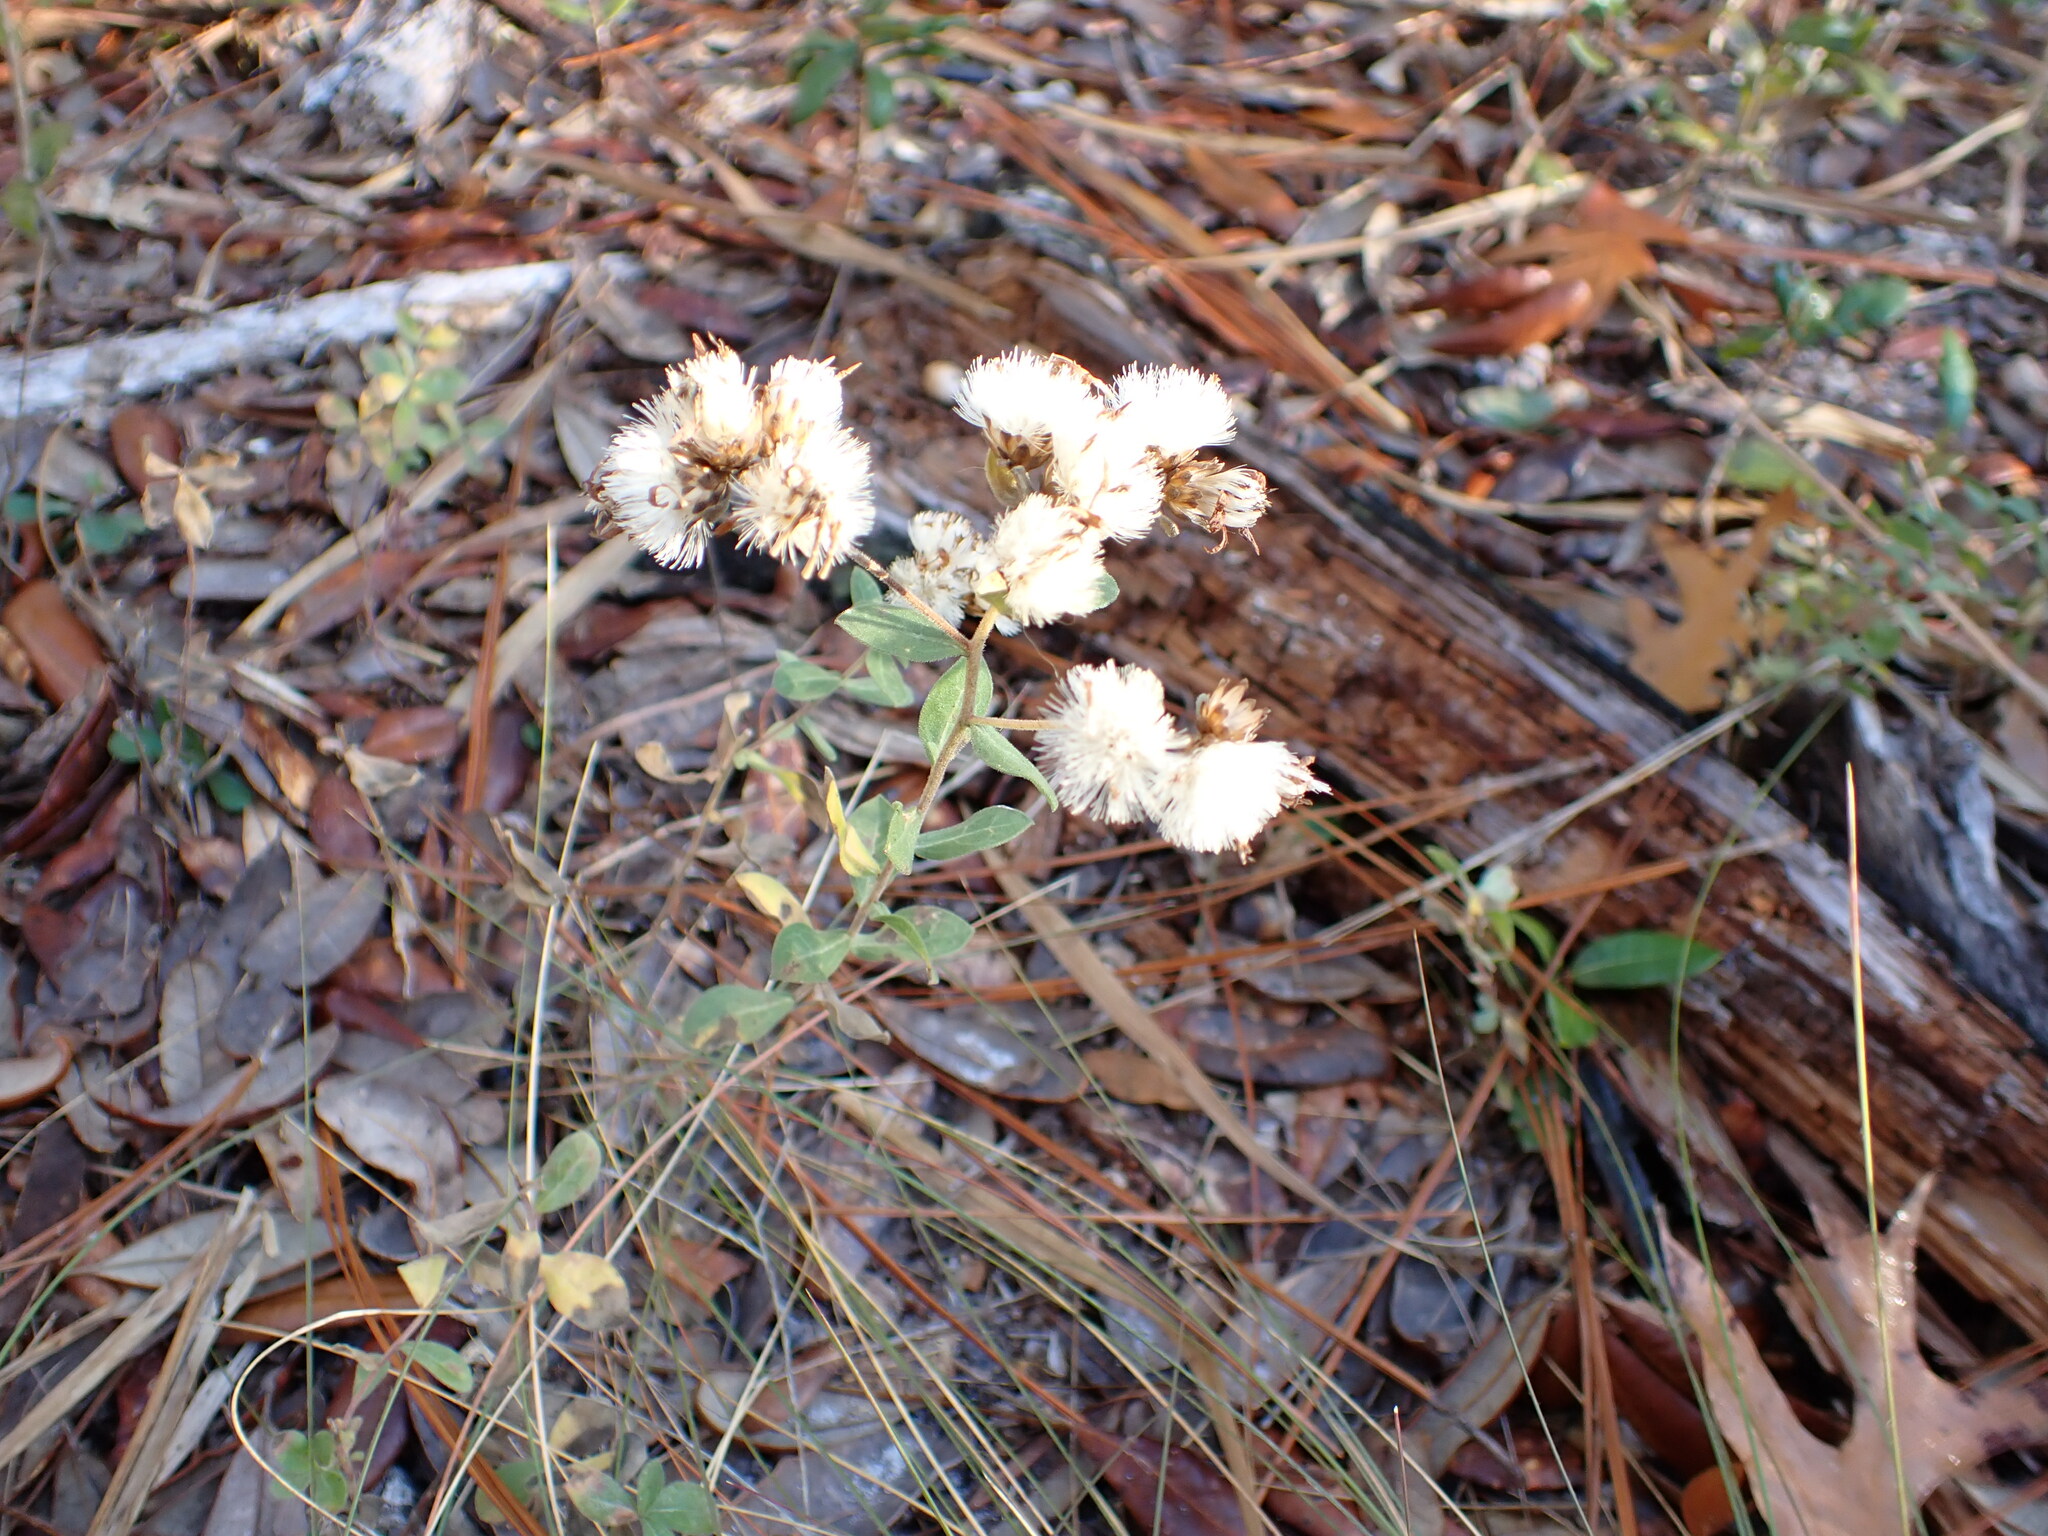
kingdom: Plantae
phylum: Tracheophyta
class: Magnoliopsida
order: Asterales
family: Asteraceae
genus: Sericocarpus
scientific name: Sericocarpus tortifolius
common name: Dixie aster
